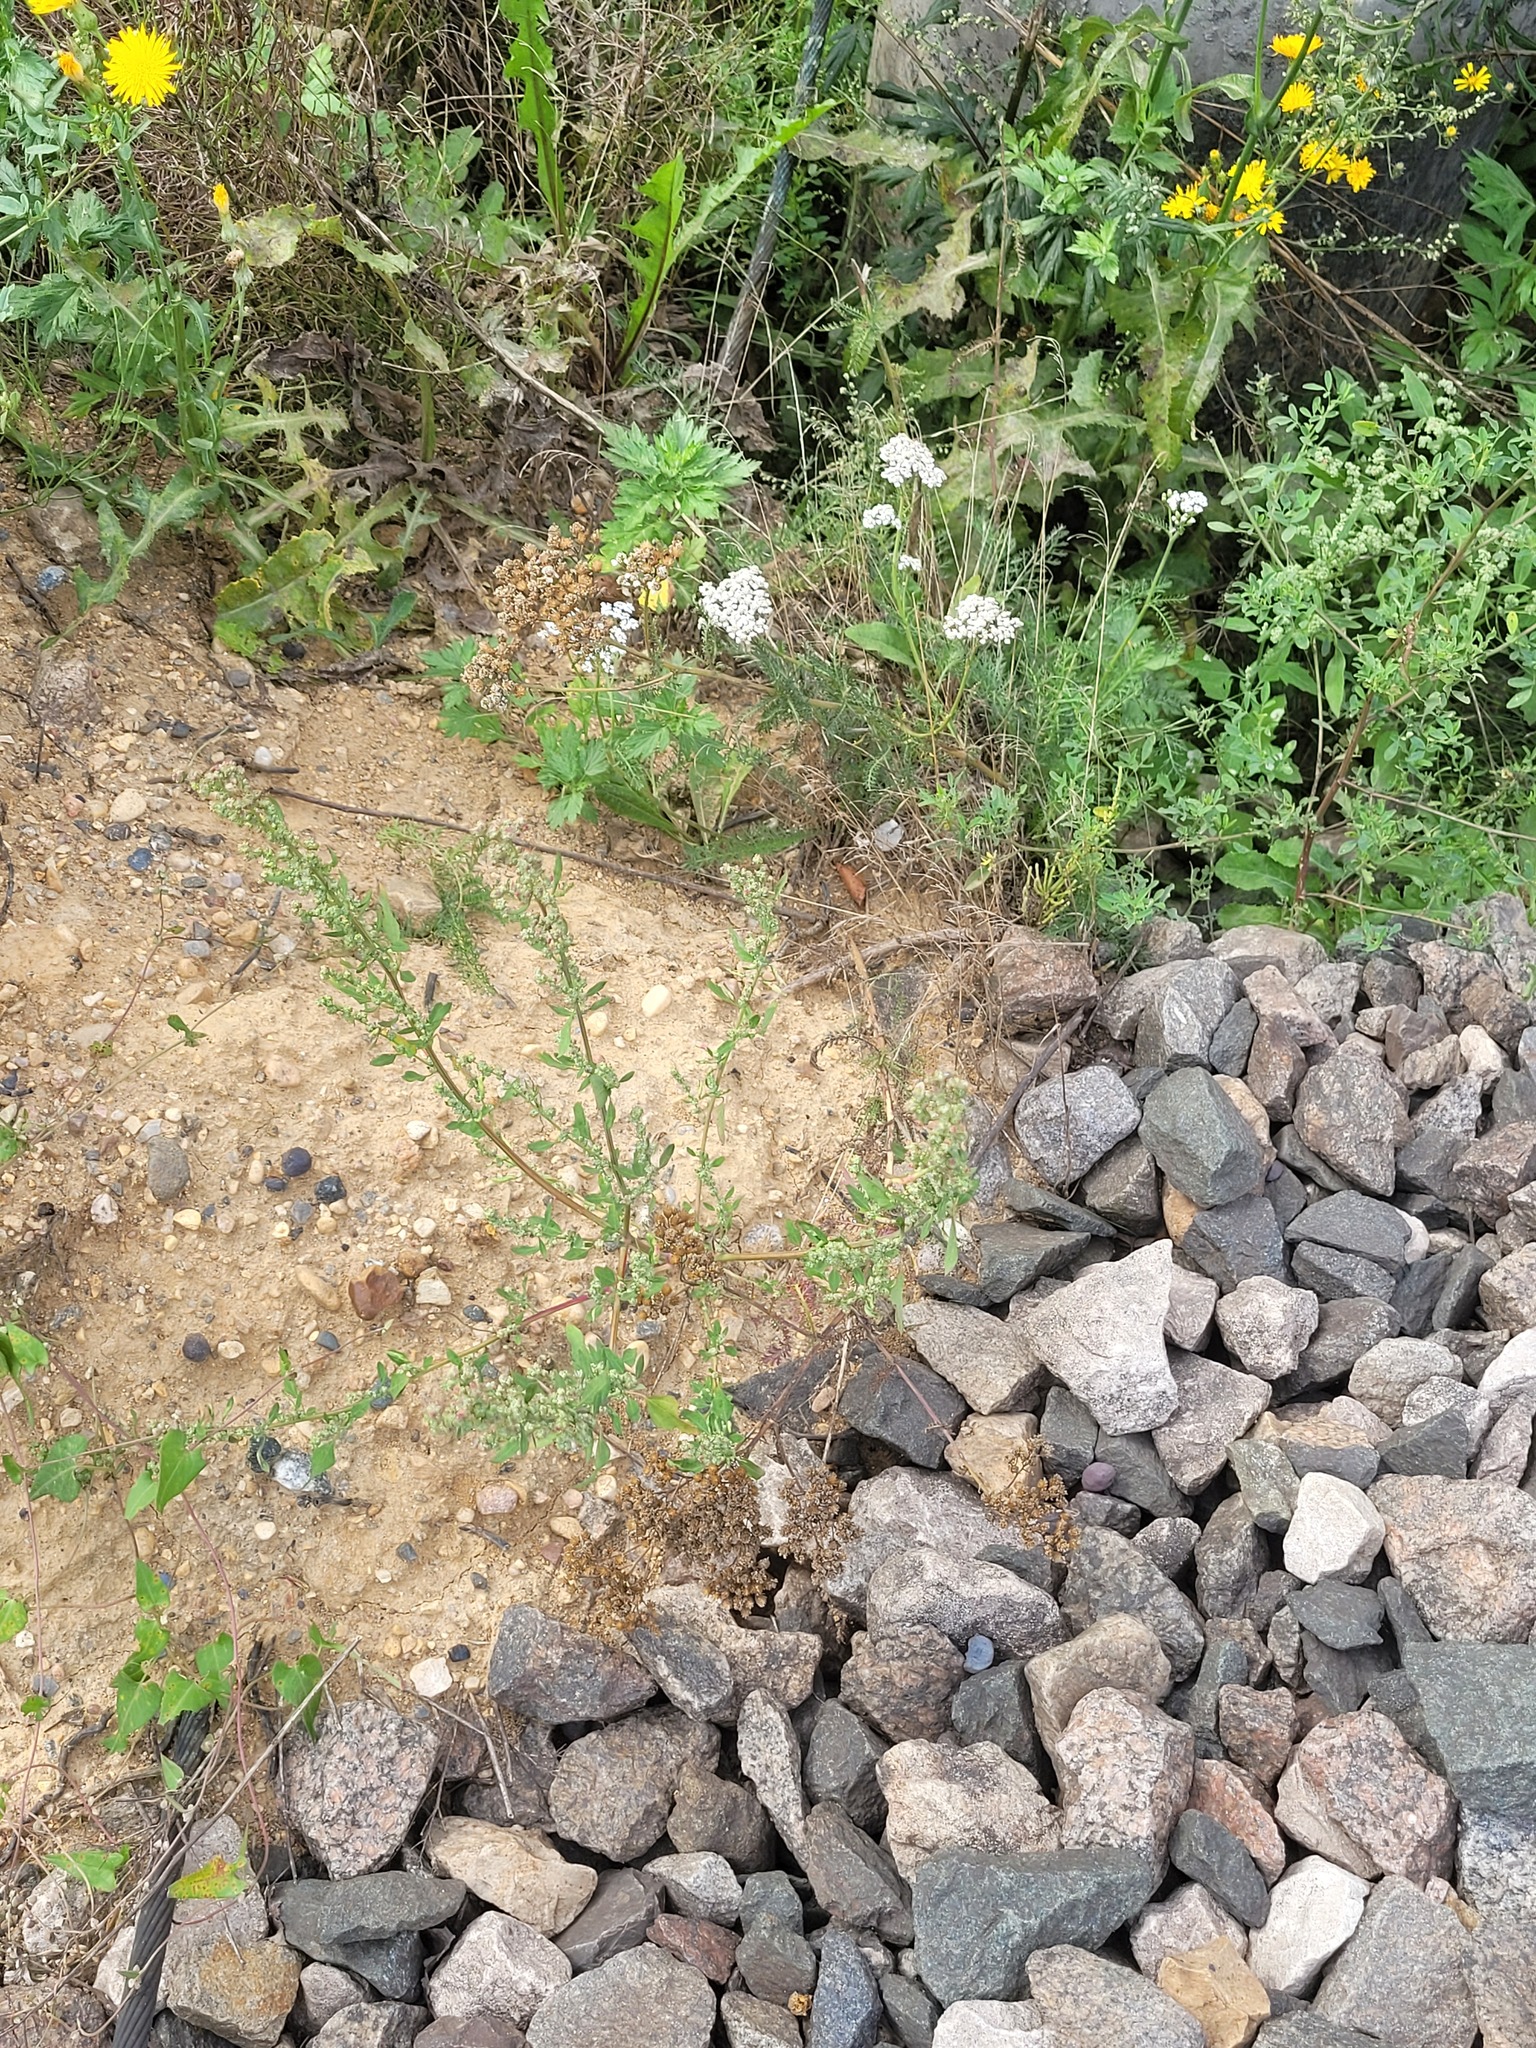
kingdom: Plantae
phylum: Tracheophyta
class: Magnoliopsida
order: Caryophyllales
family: Amaranthaceae
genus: Chenopodium
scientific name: Chenopodium album
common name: Fat-hen
